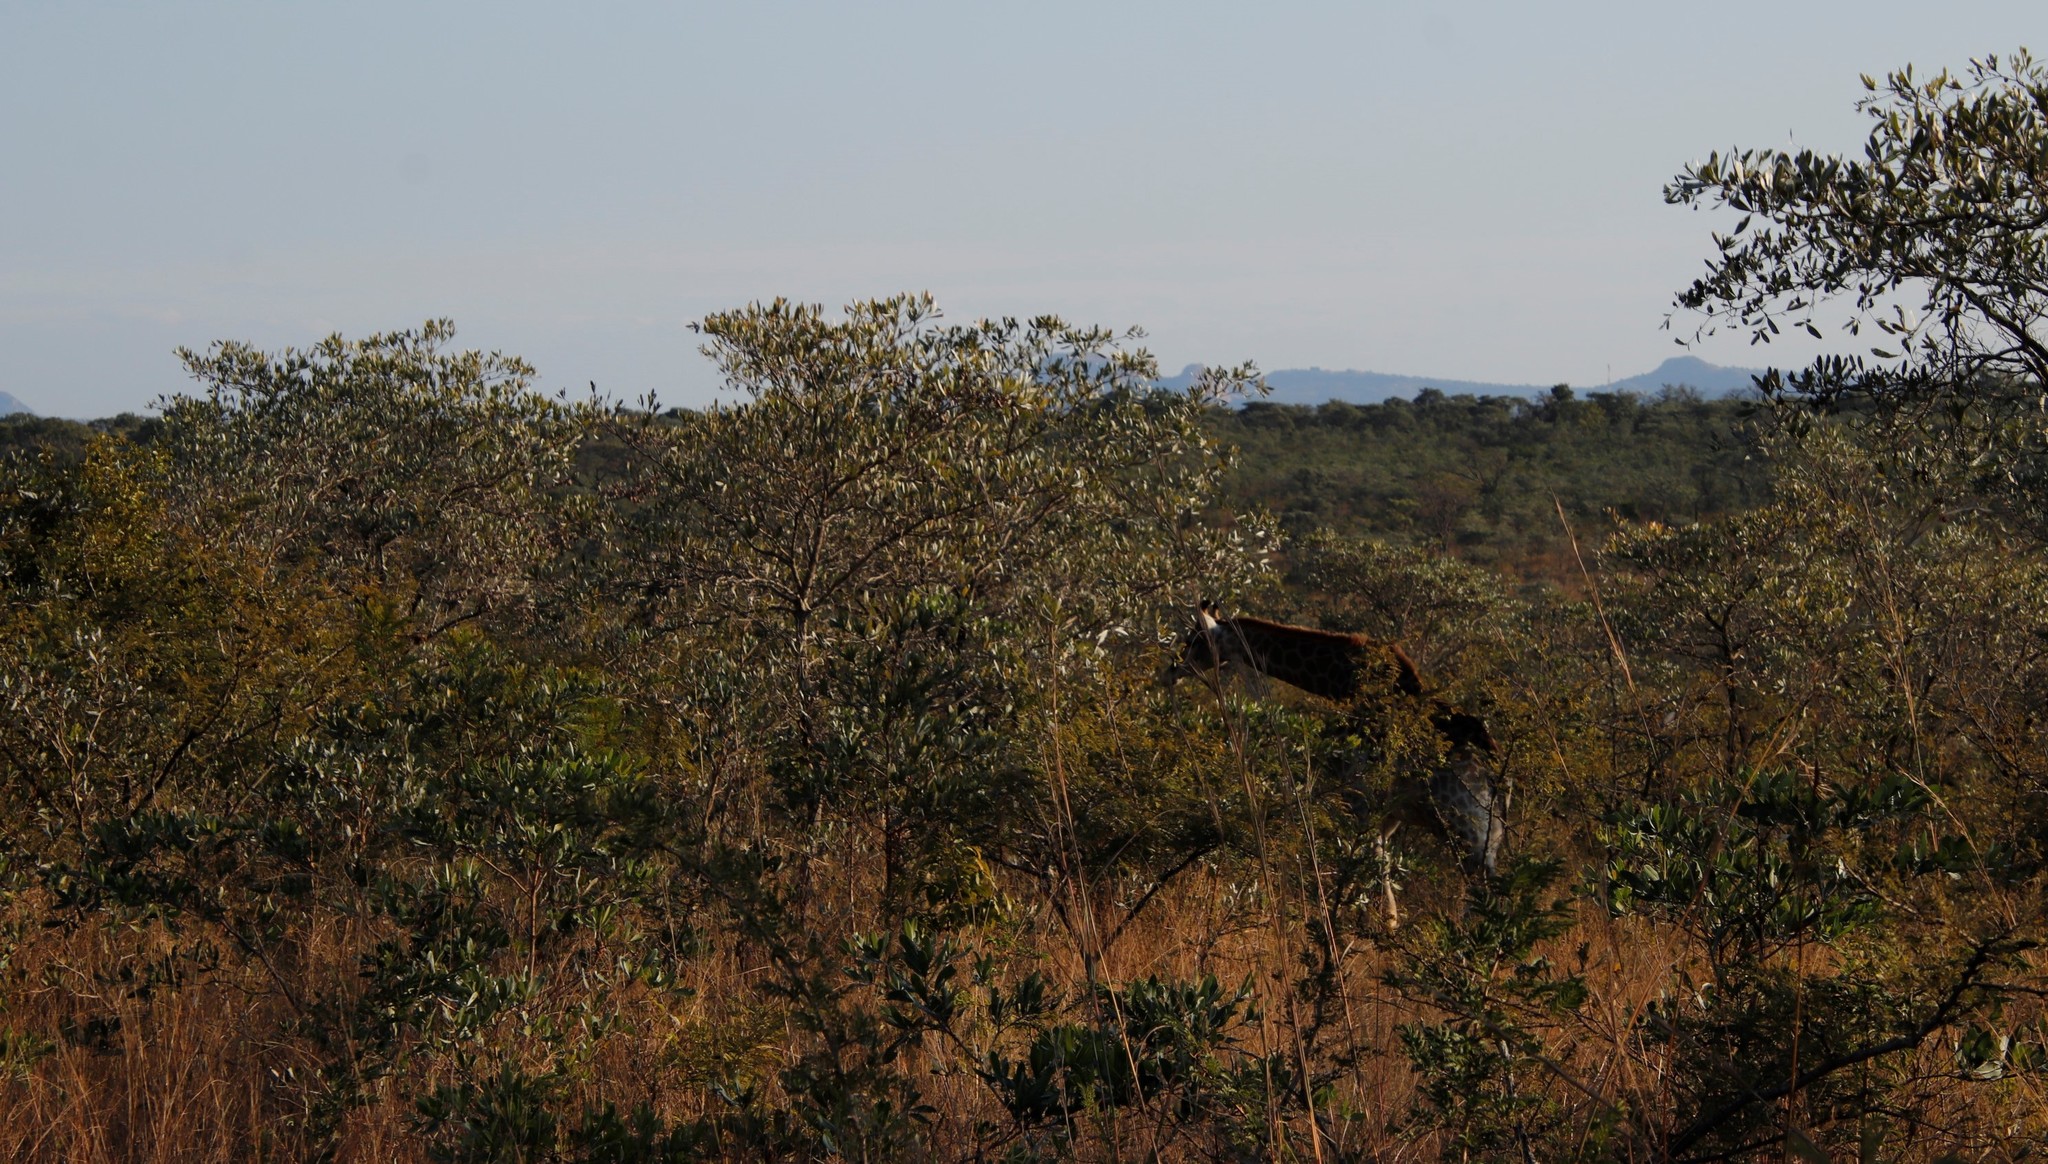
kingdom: Plantae
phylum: Tracheophyta
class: Magnoliopsida
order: Myrtales
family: Combretaceae
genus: Terminalia
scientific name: Terminalia sericea
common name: Clusterleaf
